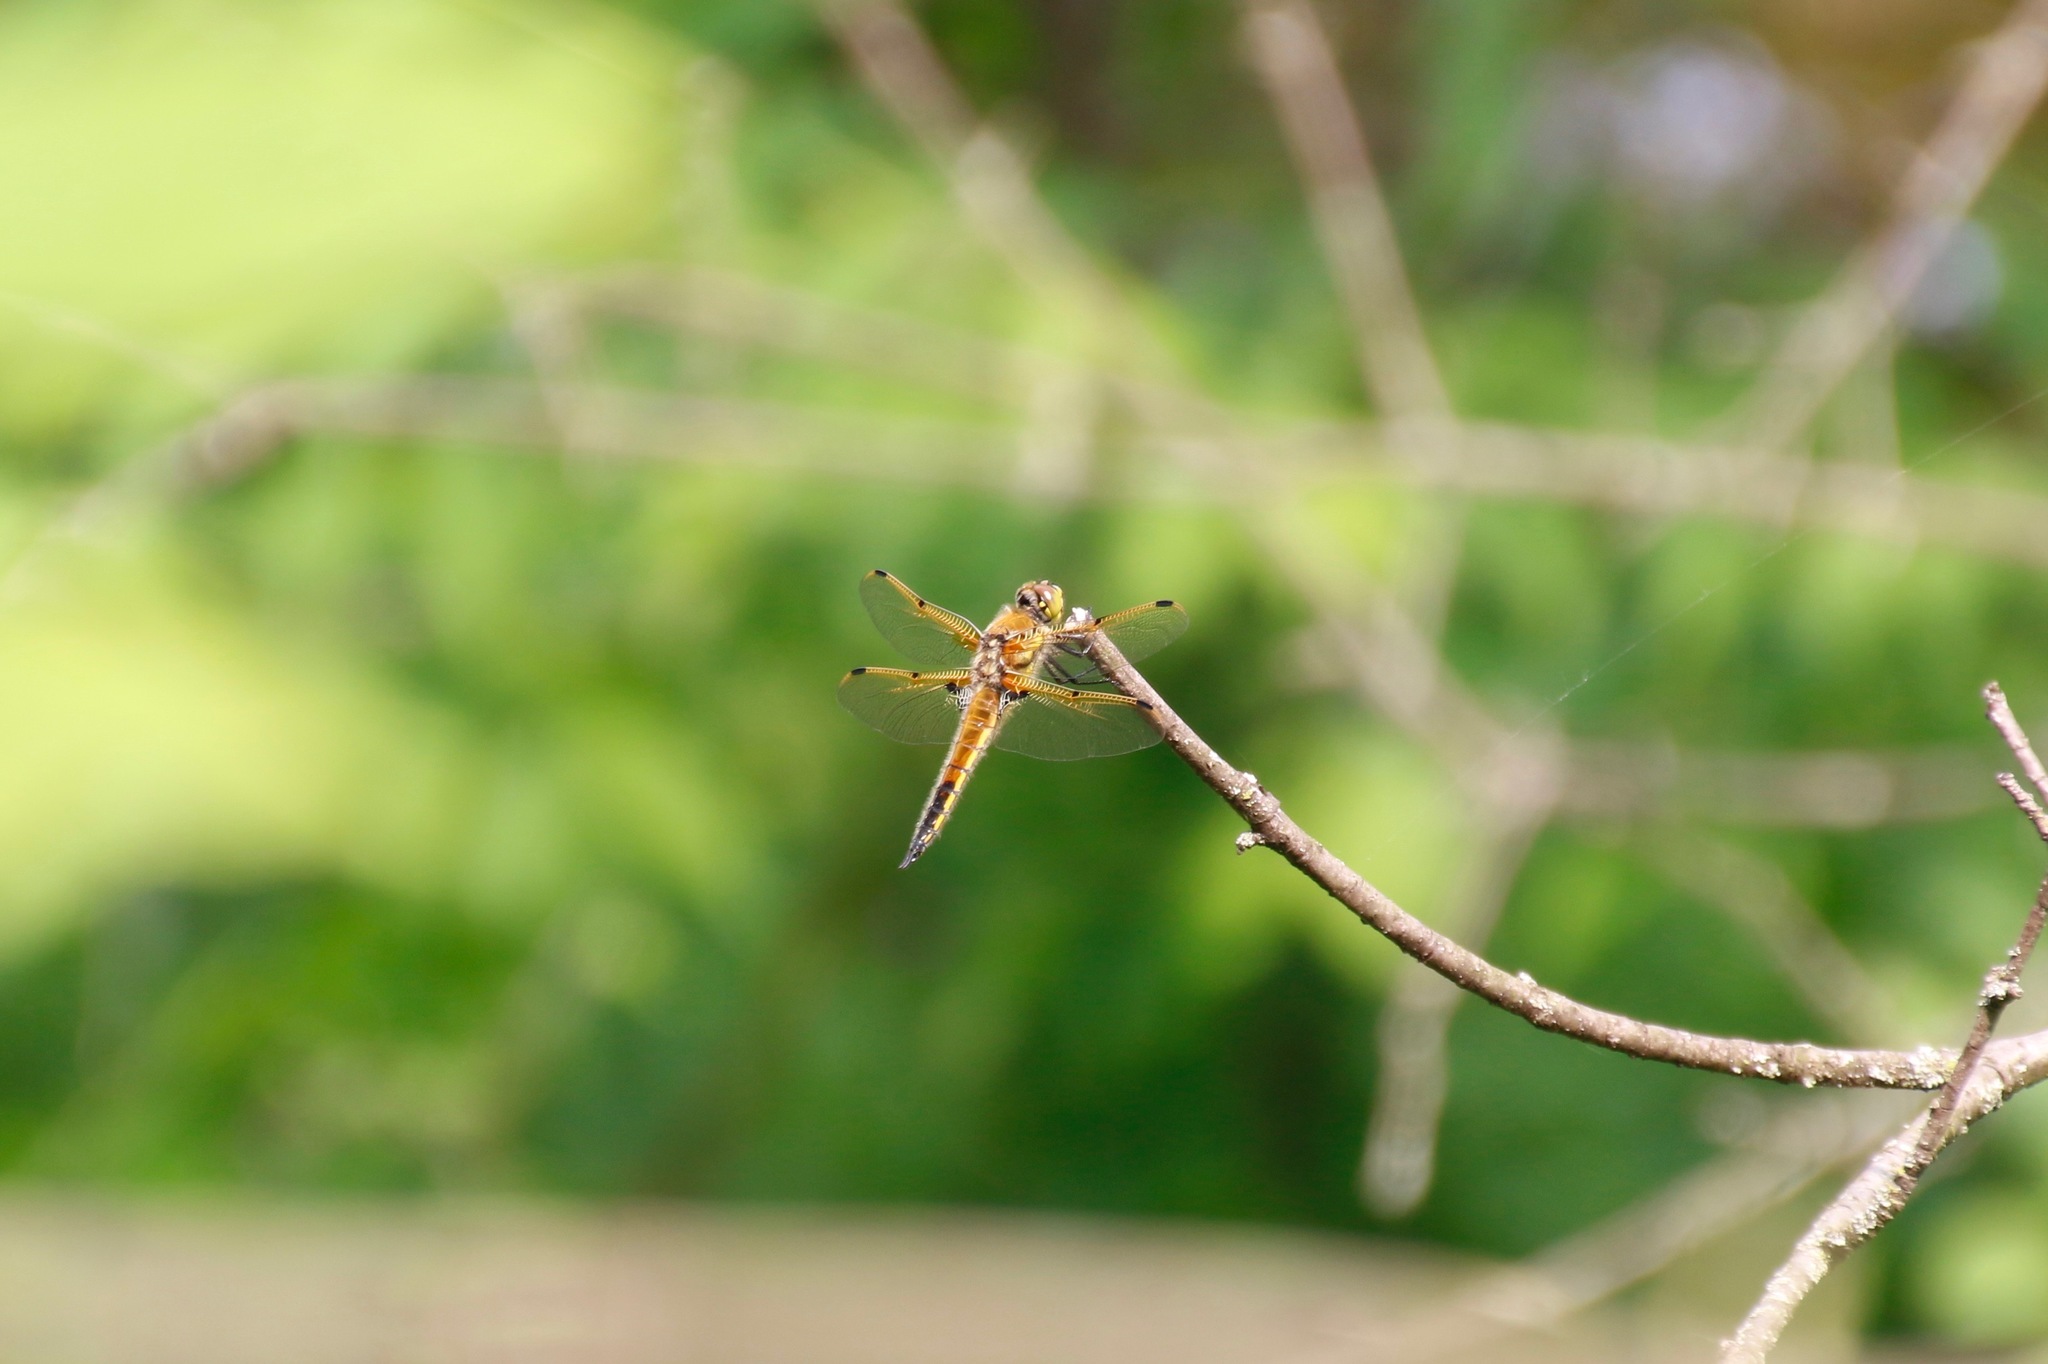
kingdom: Animalia
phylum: Arthropoda
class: Insecta
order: Odonata
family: Libellulidae
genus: Libellula
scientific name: Libellula quadrimaculata
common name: Four-spotted chaser
